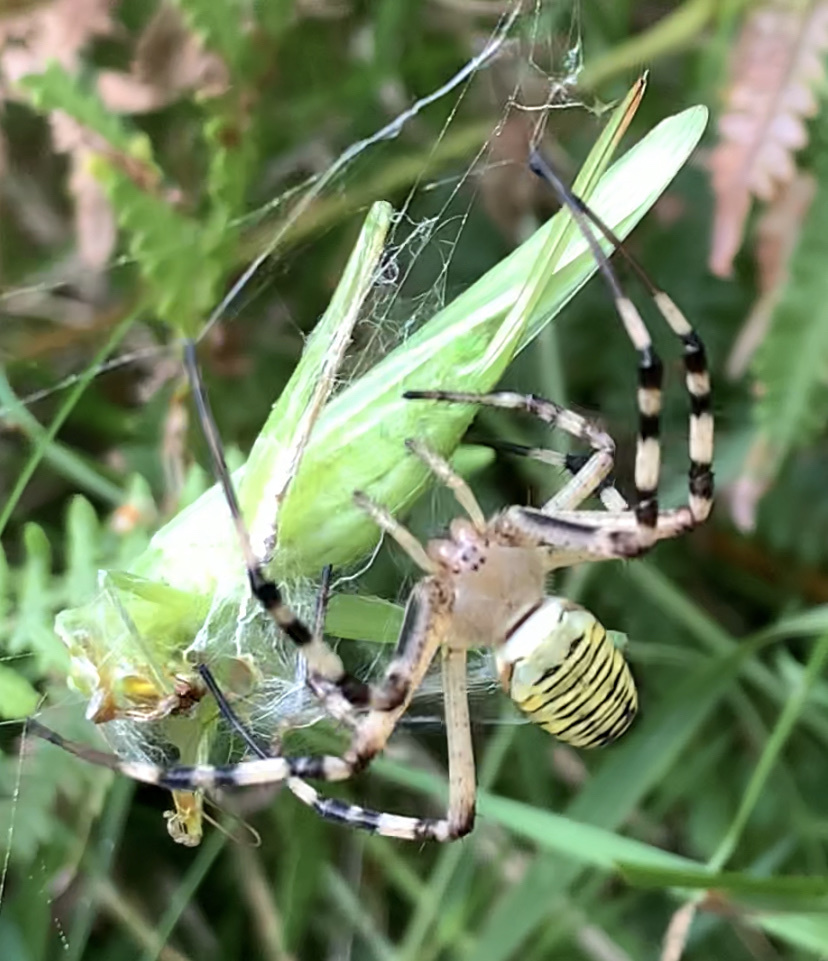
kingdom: Animalia
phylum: Arthropoda
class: Arachnida
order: Araneae
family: Araneidae
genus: Argiope
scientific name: Argiope bruennichi
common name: Wasp spider
